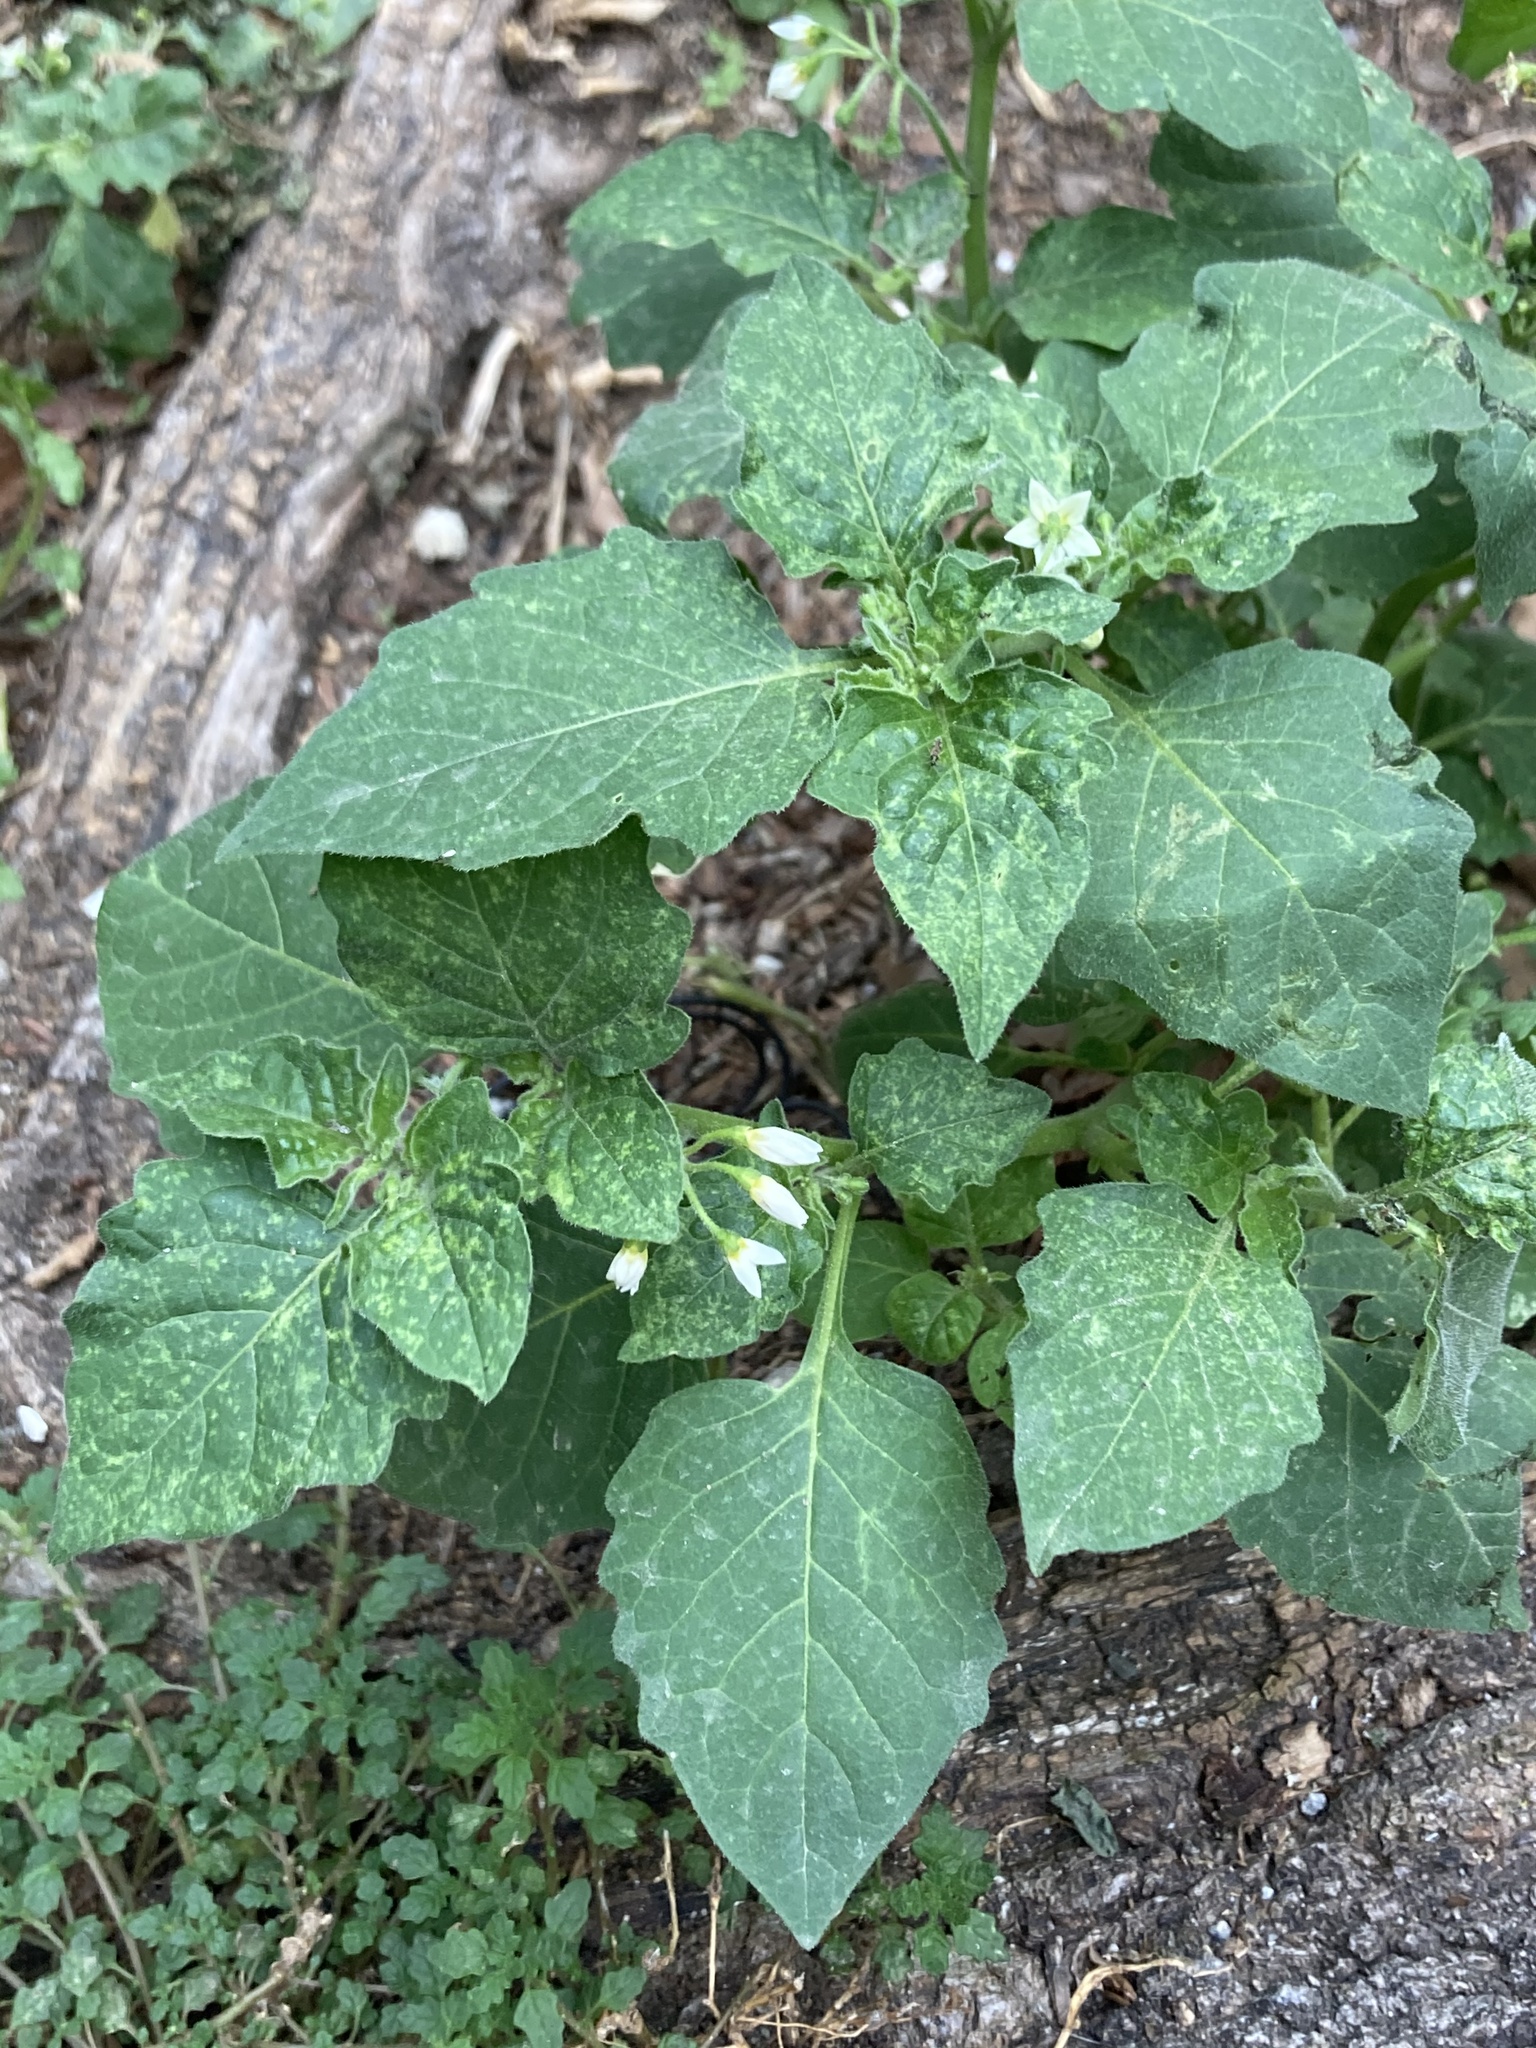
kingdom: Plantae
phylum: Tracheophyta
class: Magnoliopsida
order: Solanales
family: Solanaceae
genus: Solanum
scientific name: Solanum nigrum
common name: Black nightshade
